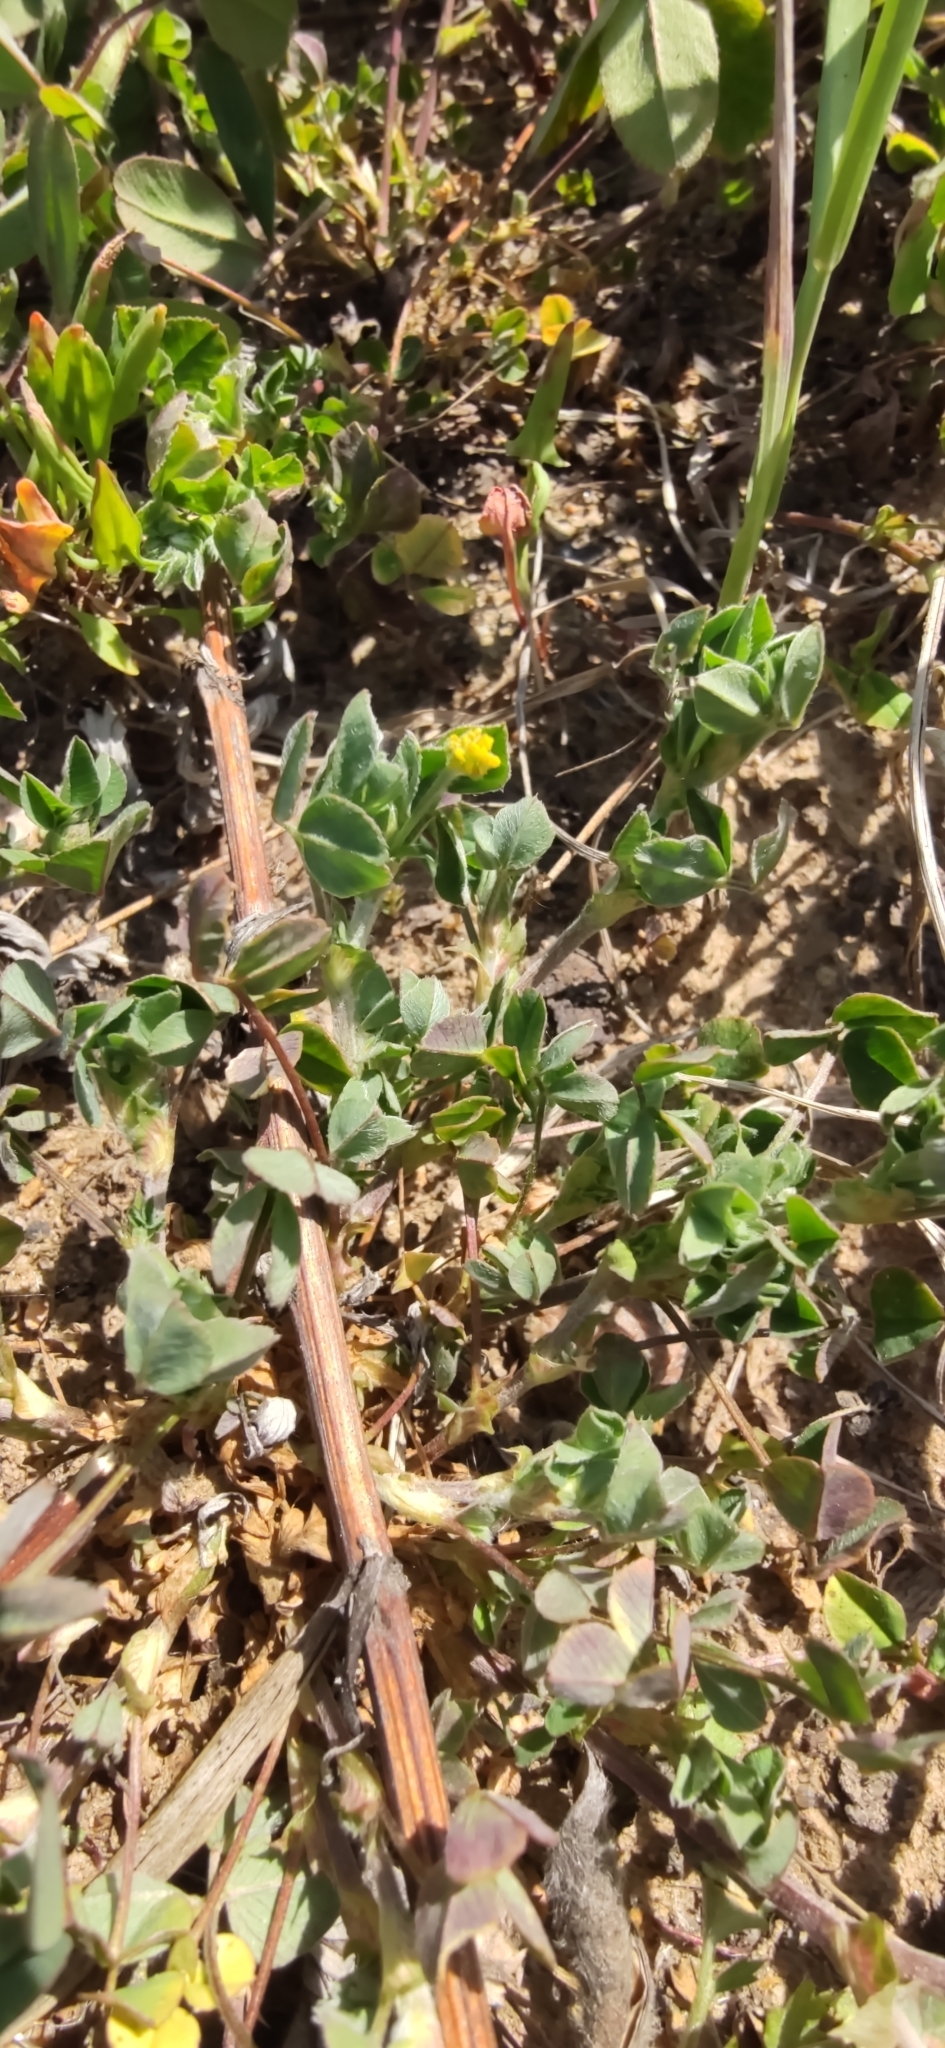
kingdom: Plantae
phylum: Tracheophyta
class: Magnoliopsida
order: Fabales
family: Fabaceae
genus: Medicago
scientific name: Medicago lupulina
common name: Black medick
